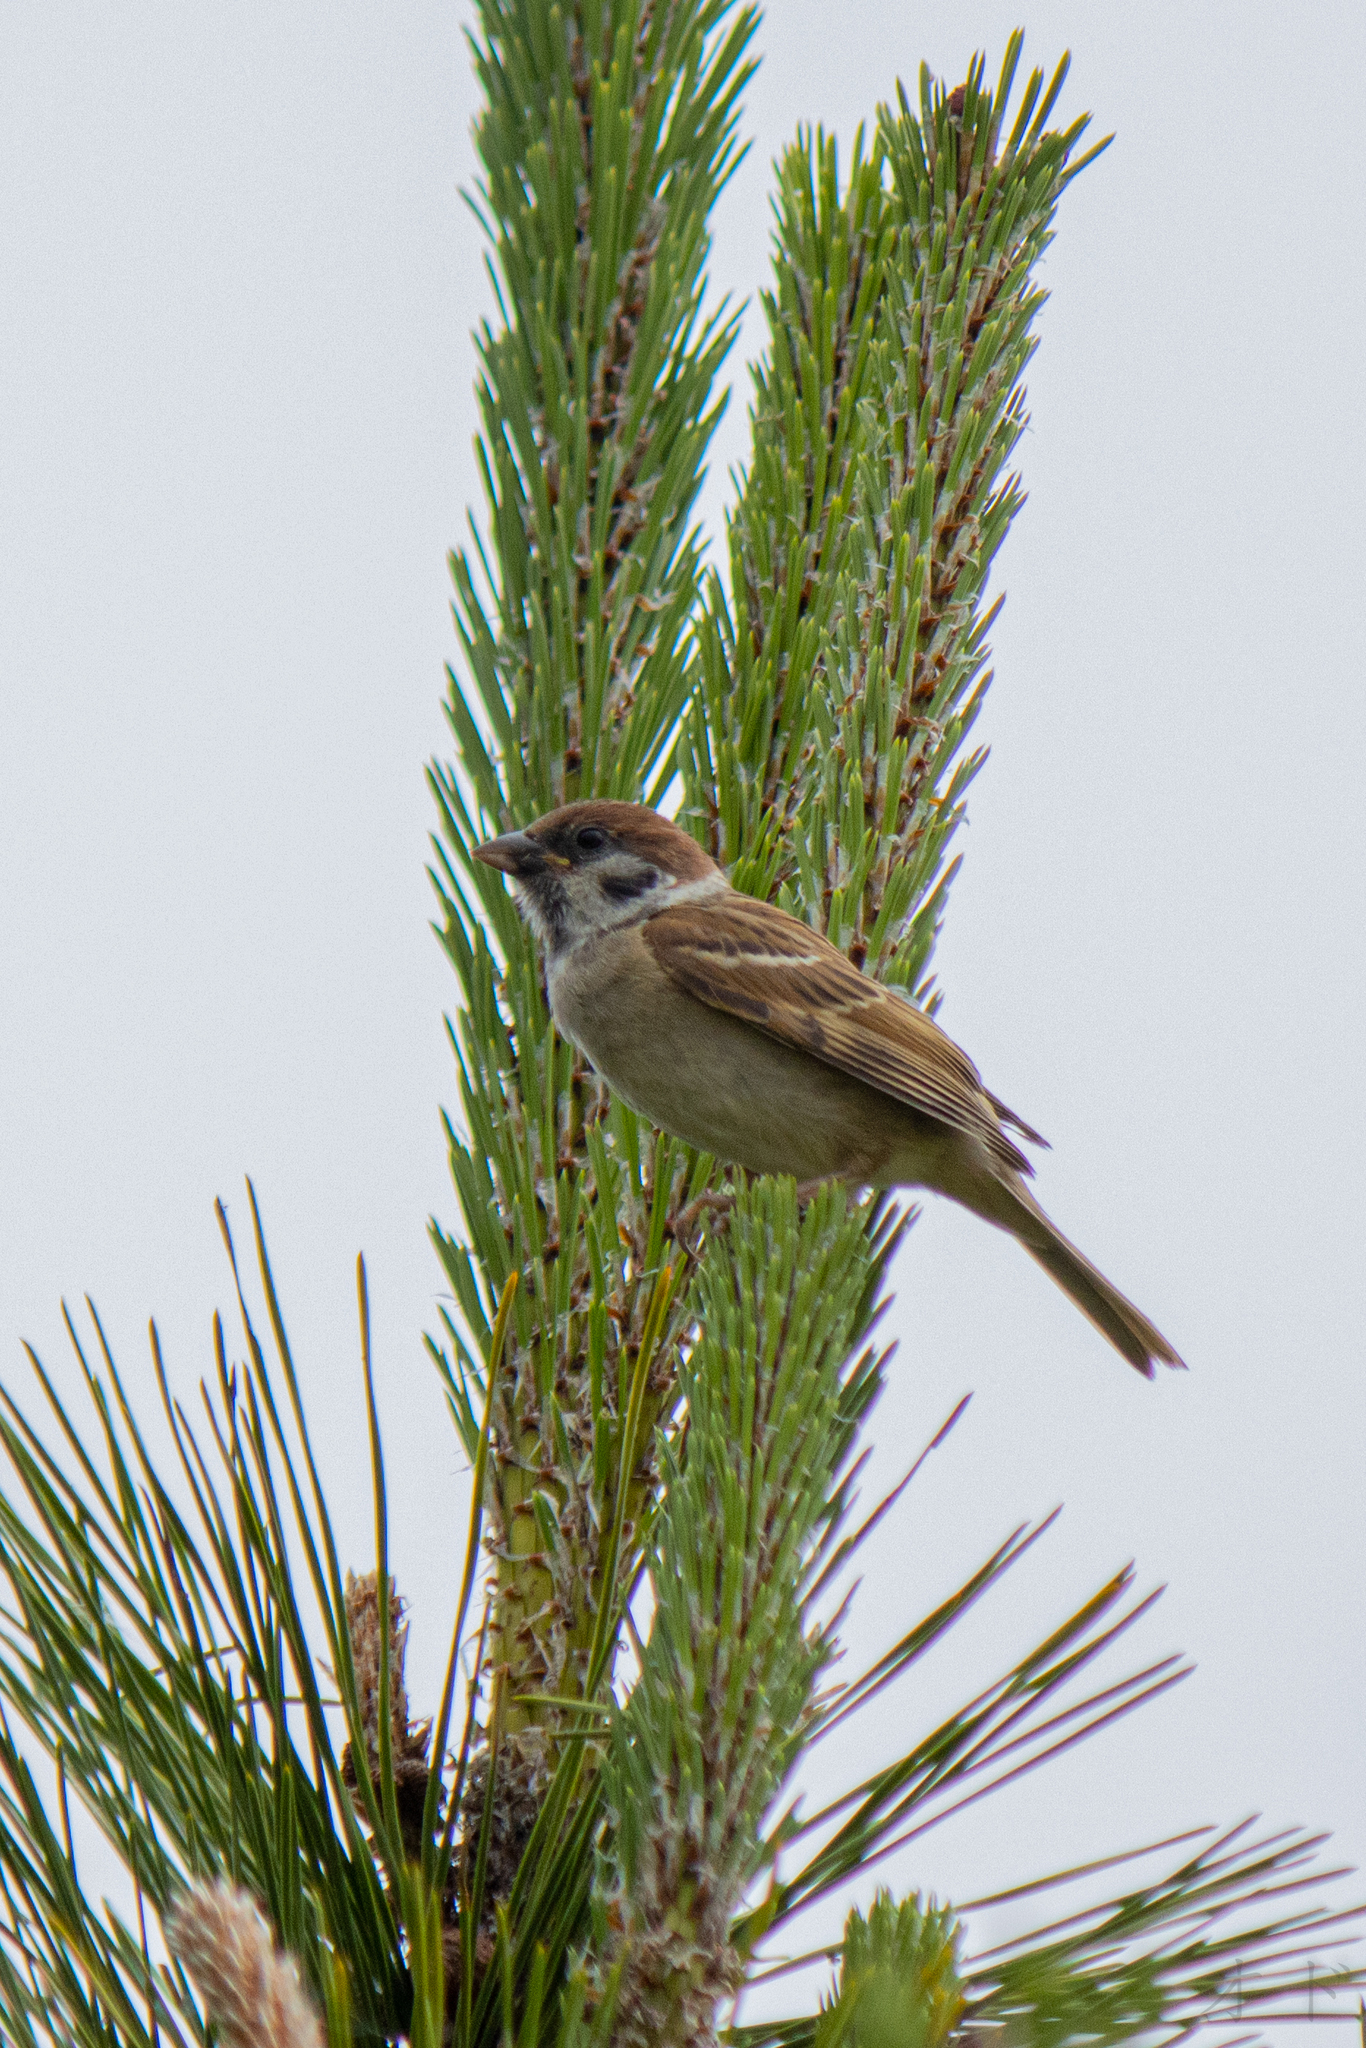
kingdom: Animalia
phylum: Chordata
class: Aves
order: Passeriformes
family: Passeridae
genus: Passer
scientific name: Passer montanus
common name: Eurasian tree sparrow
